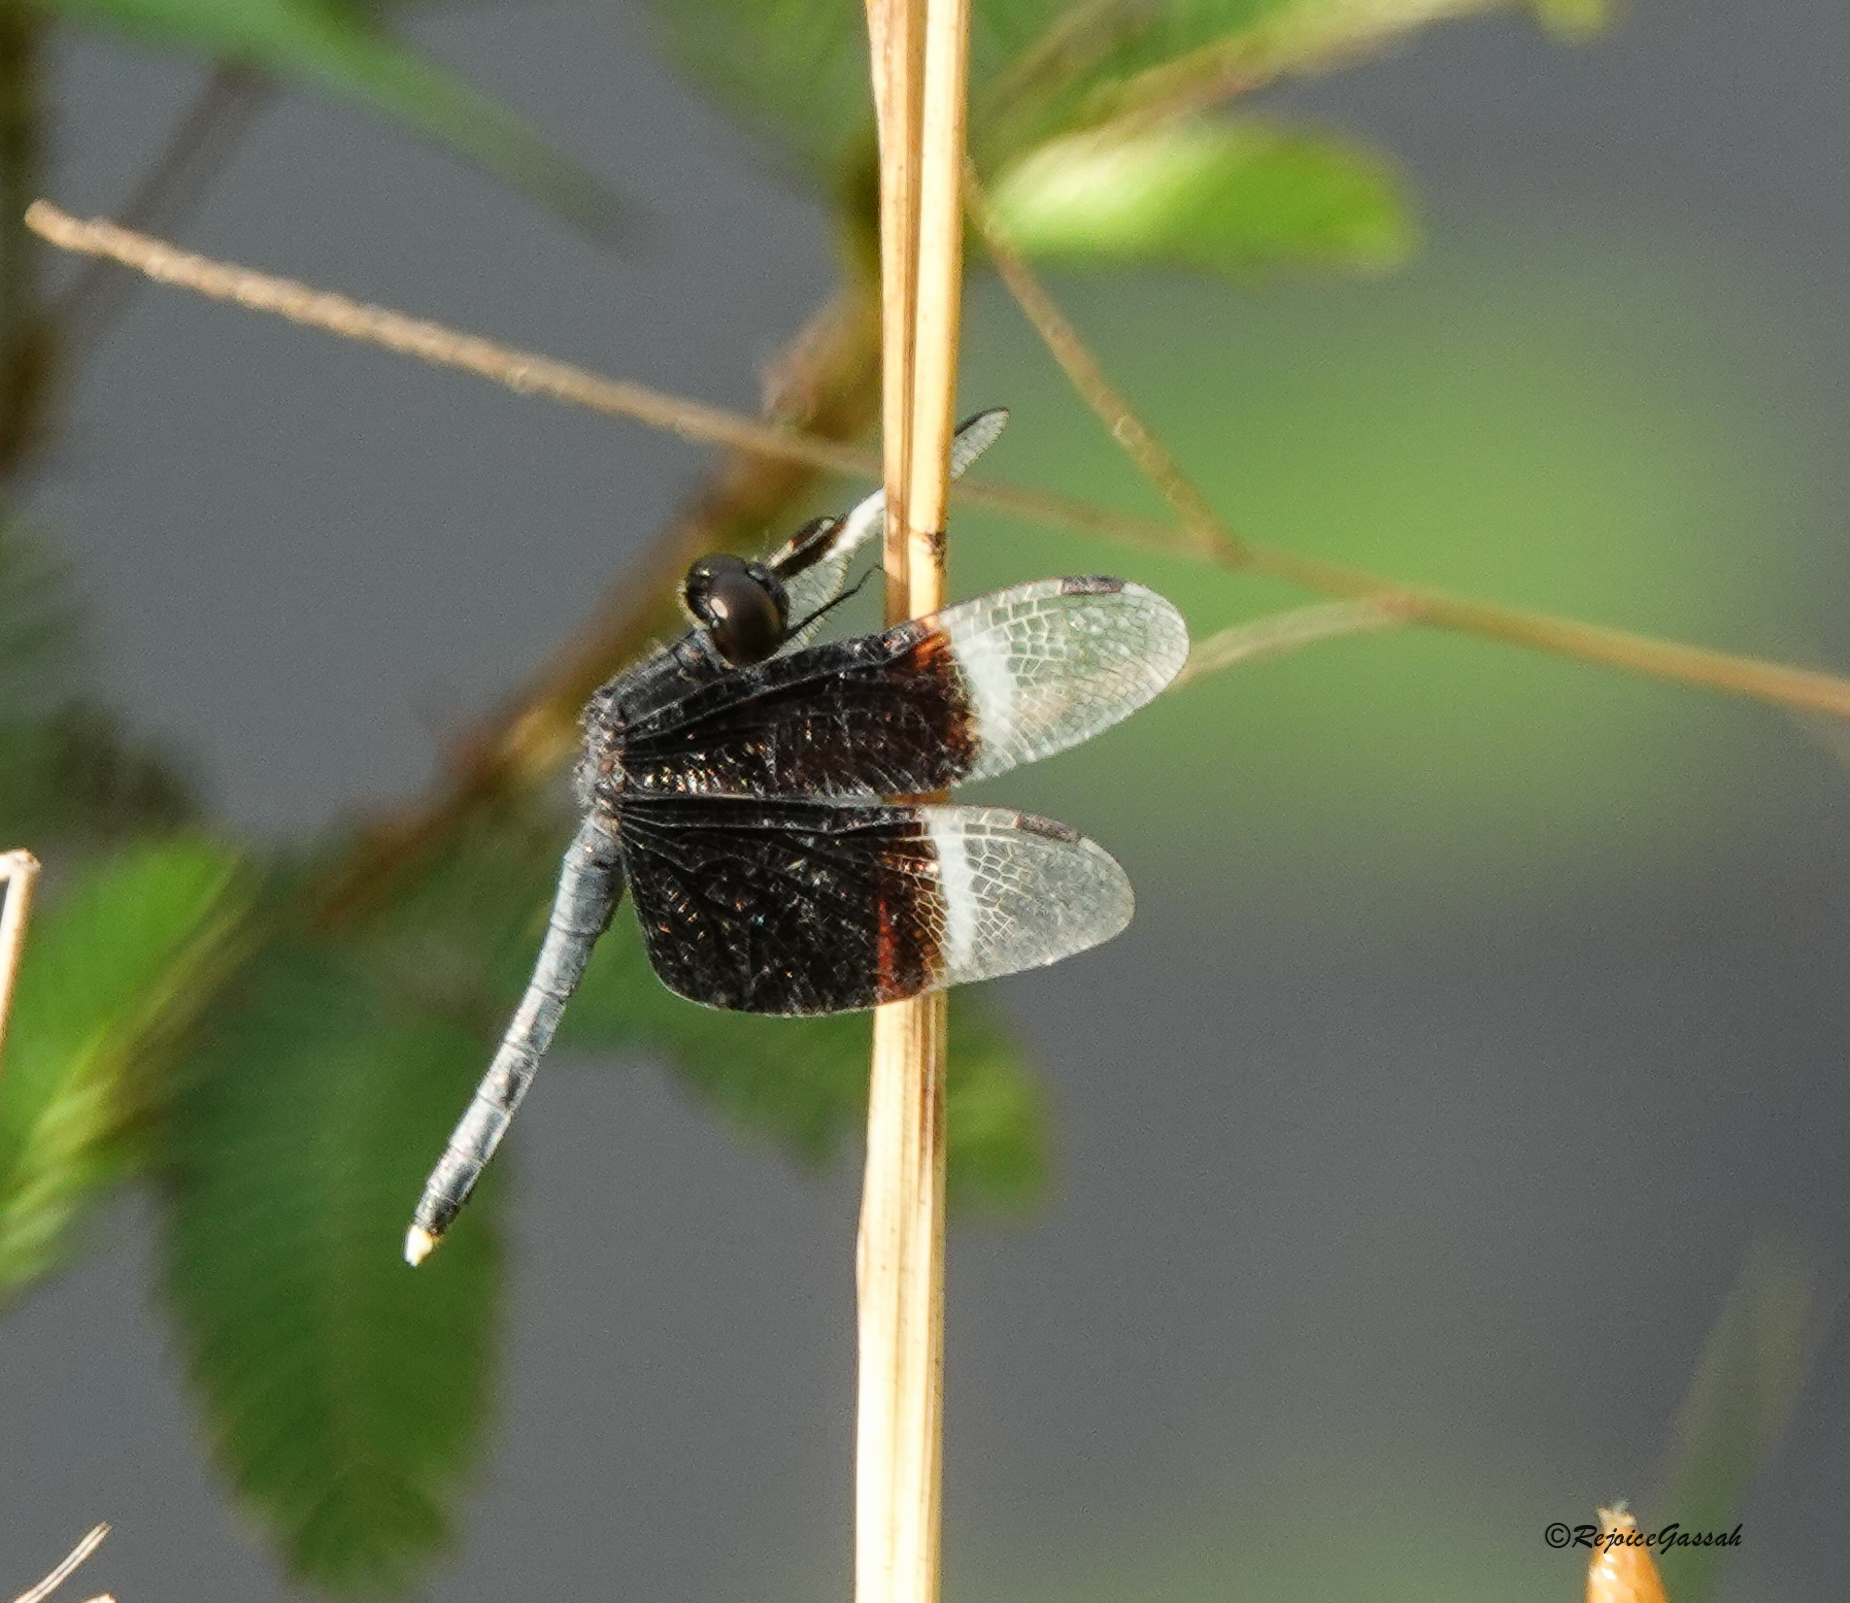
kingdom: Animalia
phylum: Arthropoda
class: Insecta
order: Odonata
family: Libellulidae
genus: Neurothemis
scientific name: Neurothemis tullia
